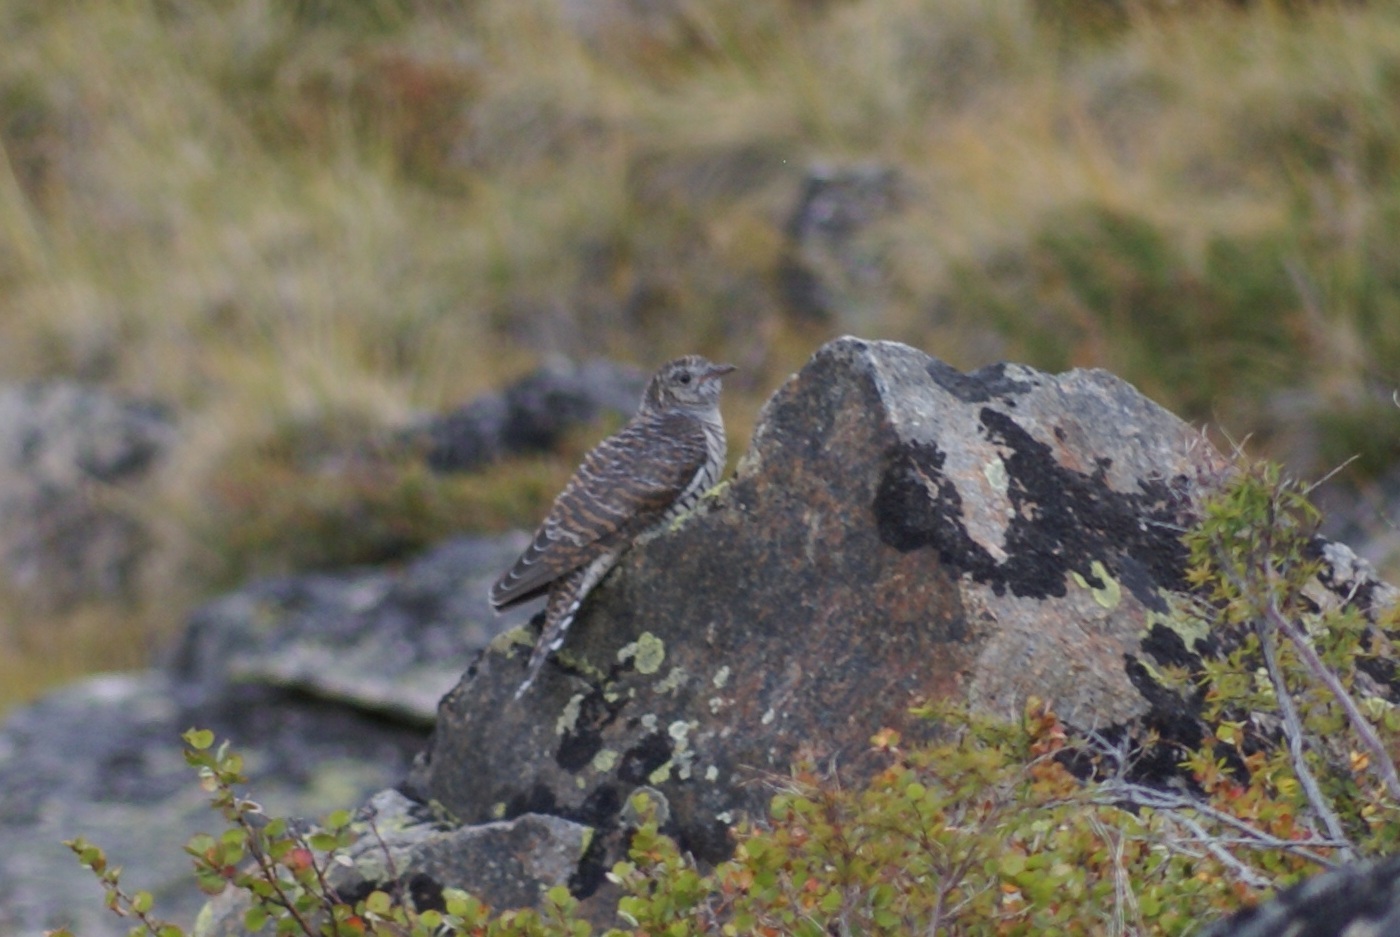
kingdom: Animalia
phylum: Chordata
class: Aves
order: Cuculiformes
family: Cuculidae
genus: Cuculus
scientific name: Cuculus canorus
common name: Common cuckoo
